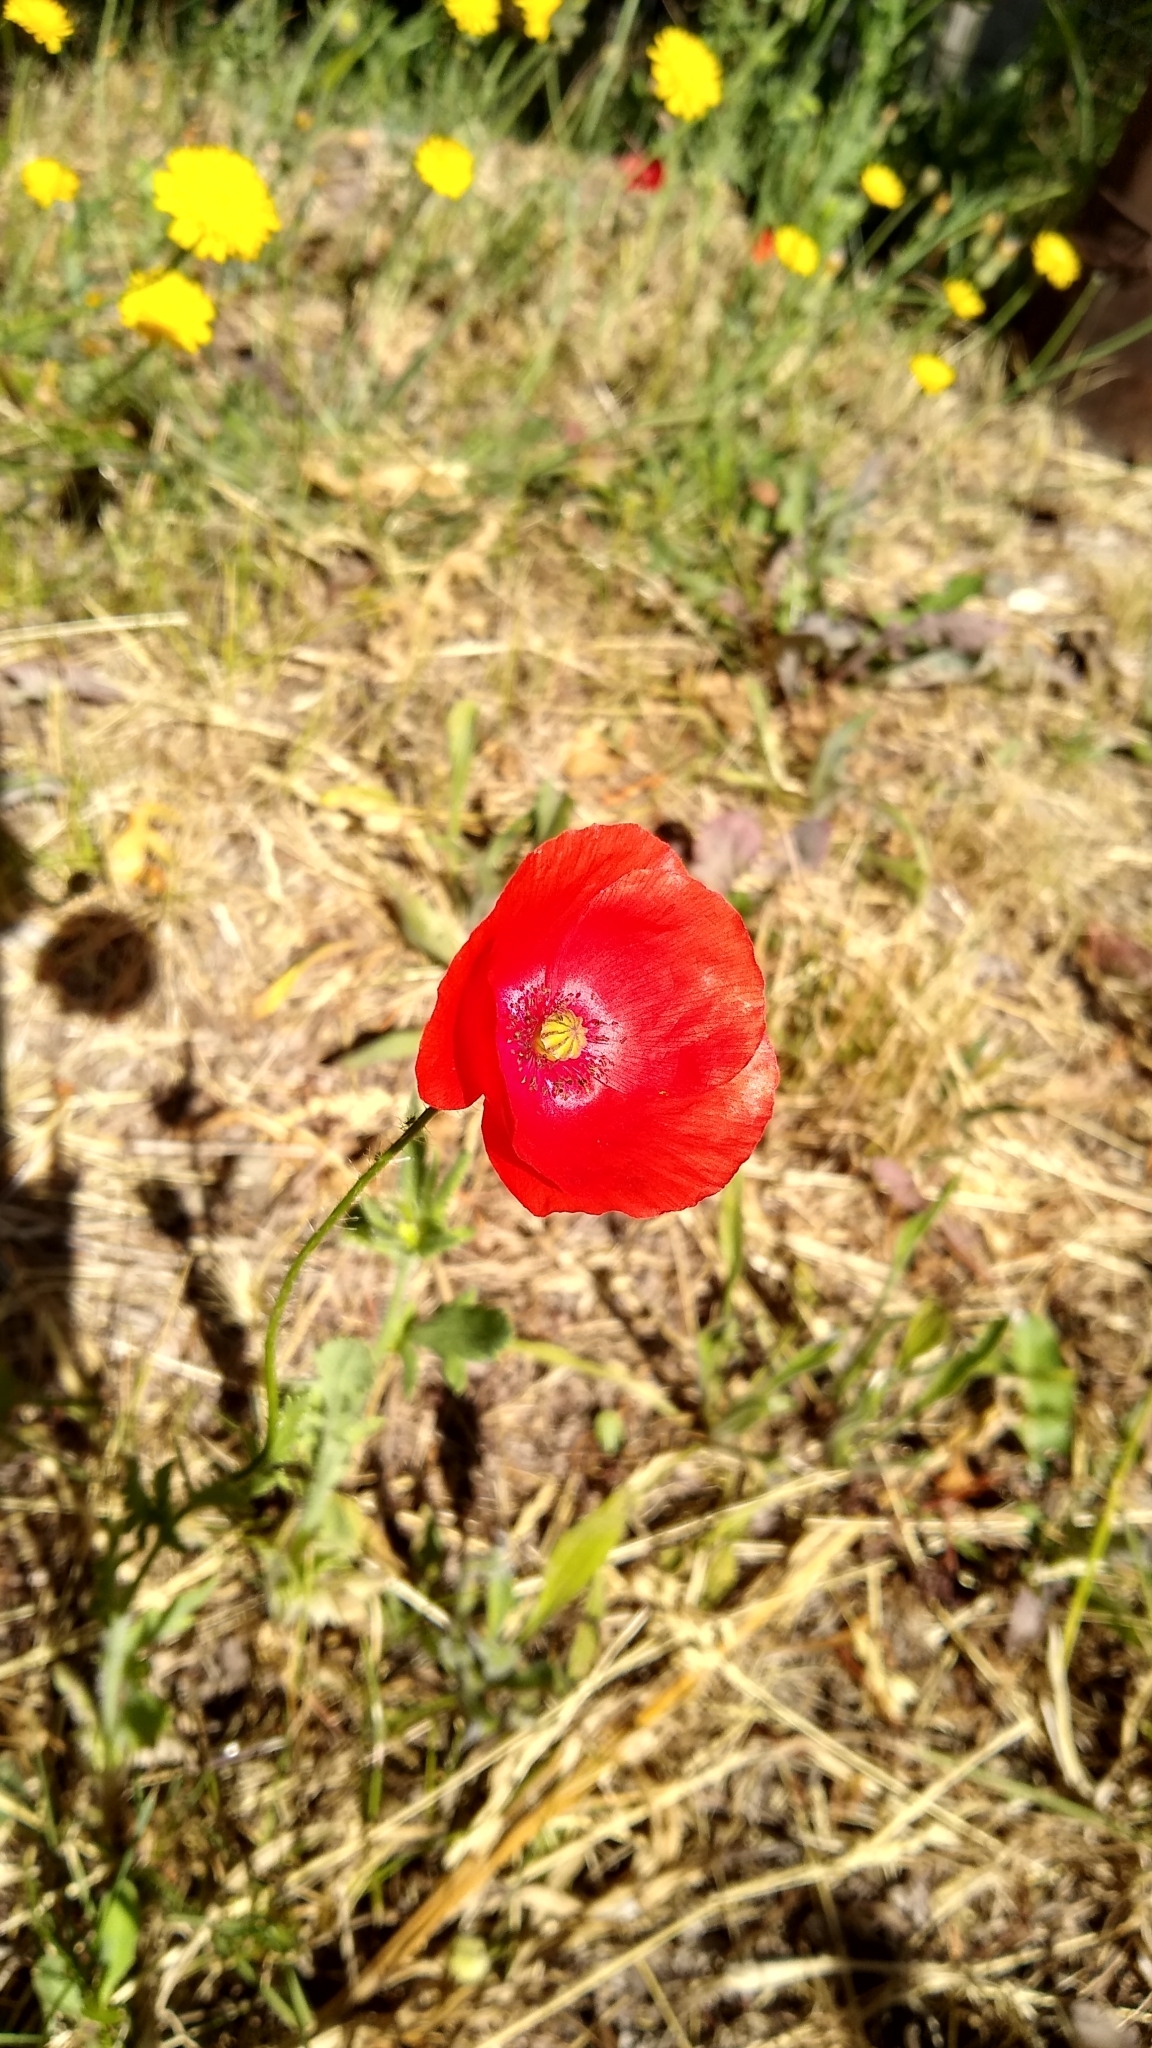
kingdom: Plantae
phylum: Tracheophyta
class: Magnoliopsida
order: Ranunculales
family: Papaveraceae
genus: Papaver
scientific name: Papaver rhoeas
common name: Corn poppy
